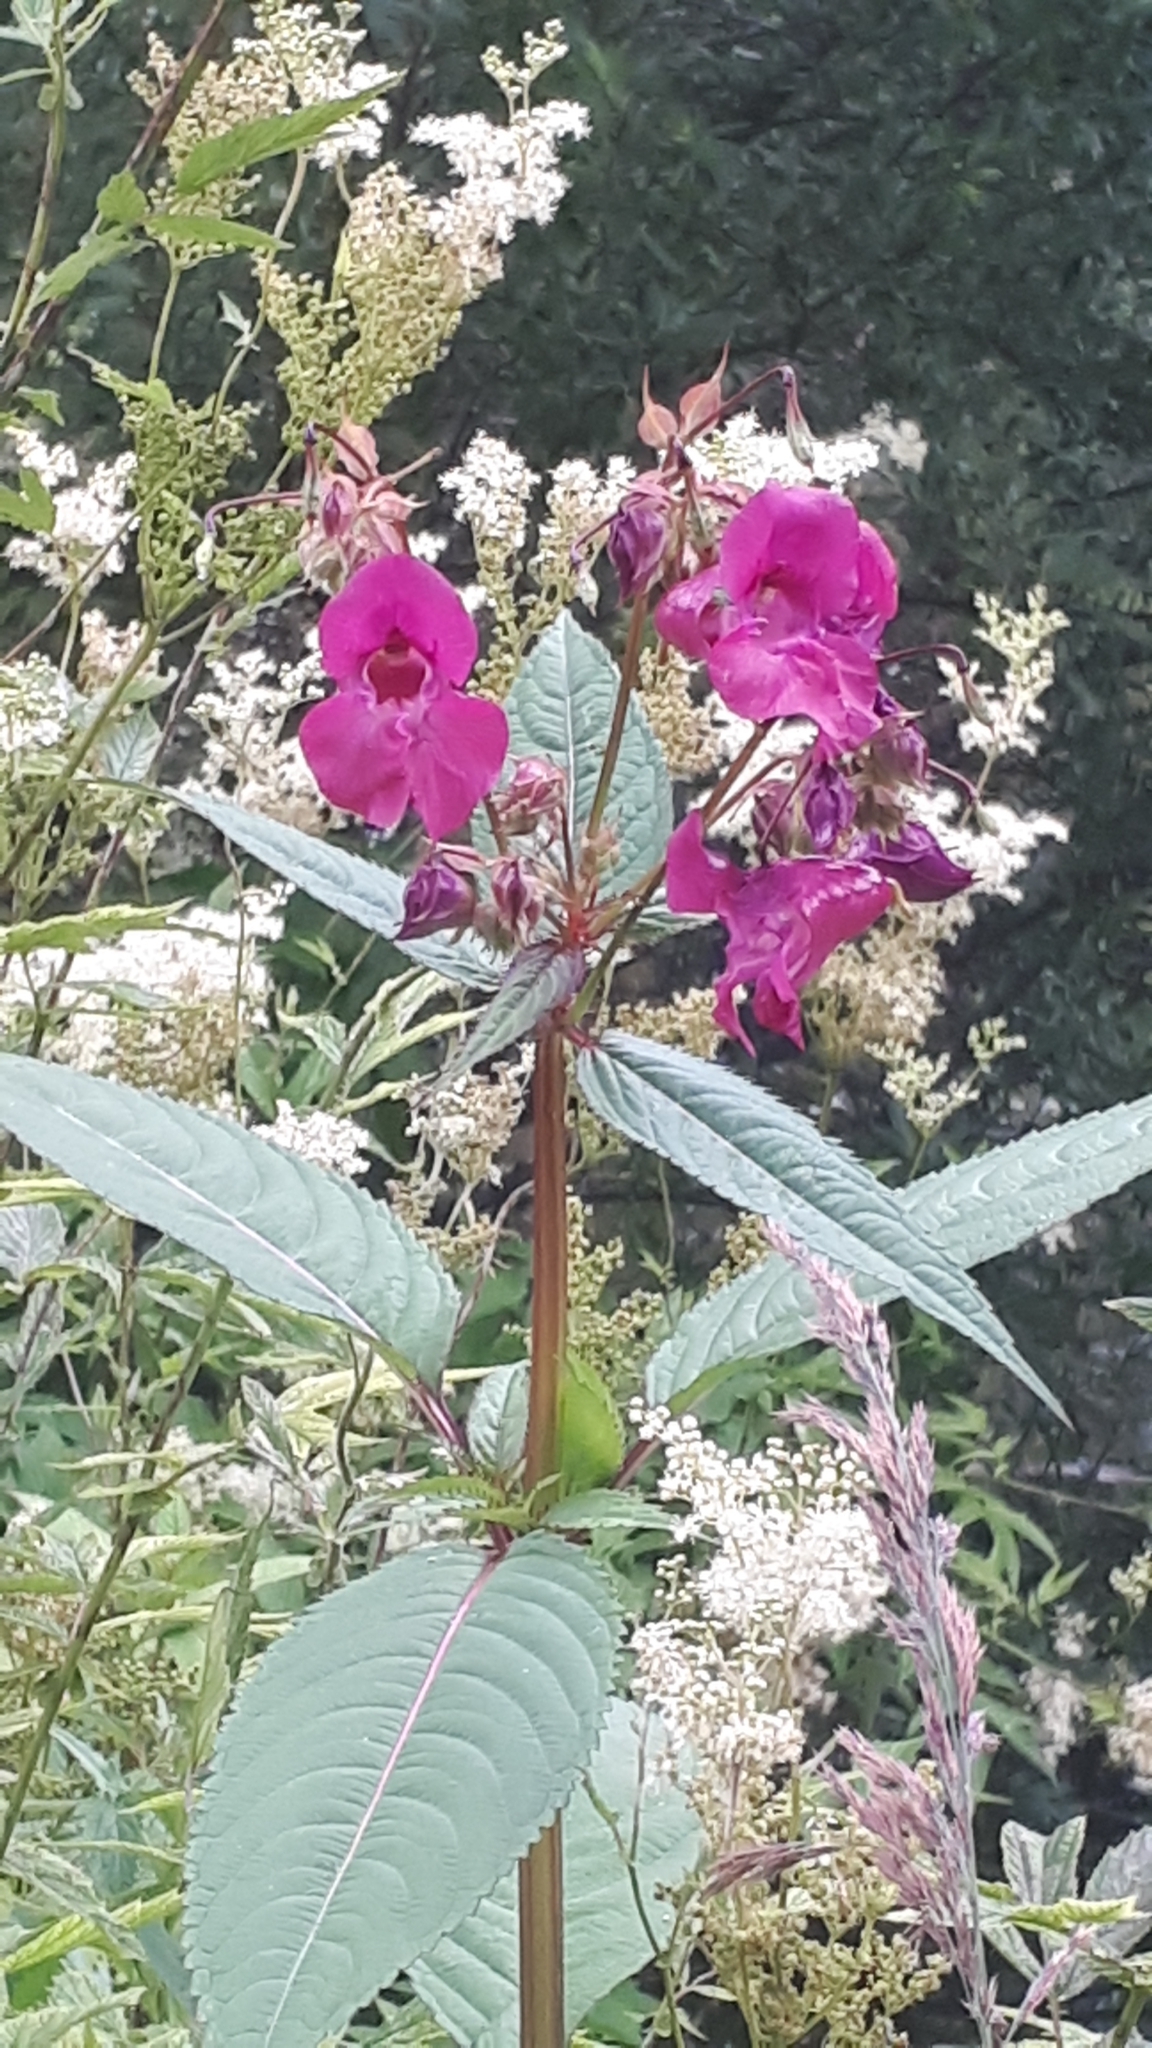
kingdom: Plantae
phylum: Tracheophyta
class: Magnoliopsida
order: Ericales
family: Balsaminaceae
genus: Impatiens
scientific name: Impatiens glandulifera
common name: Himalayan balsam
